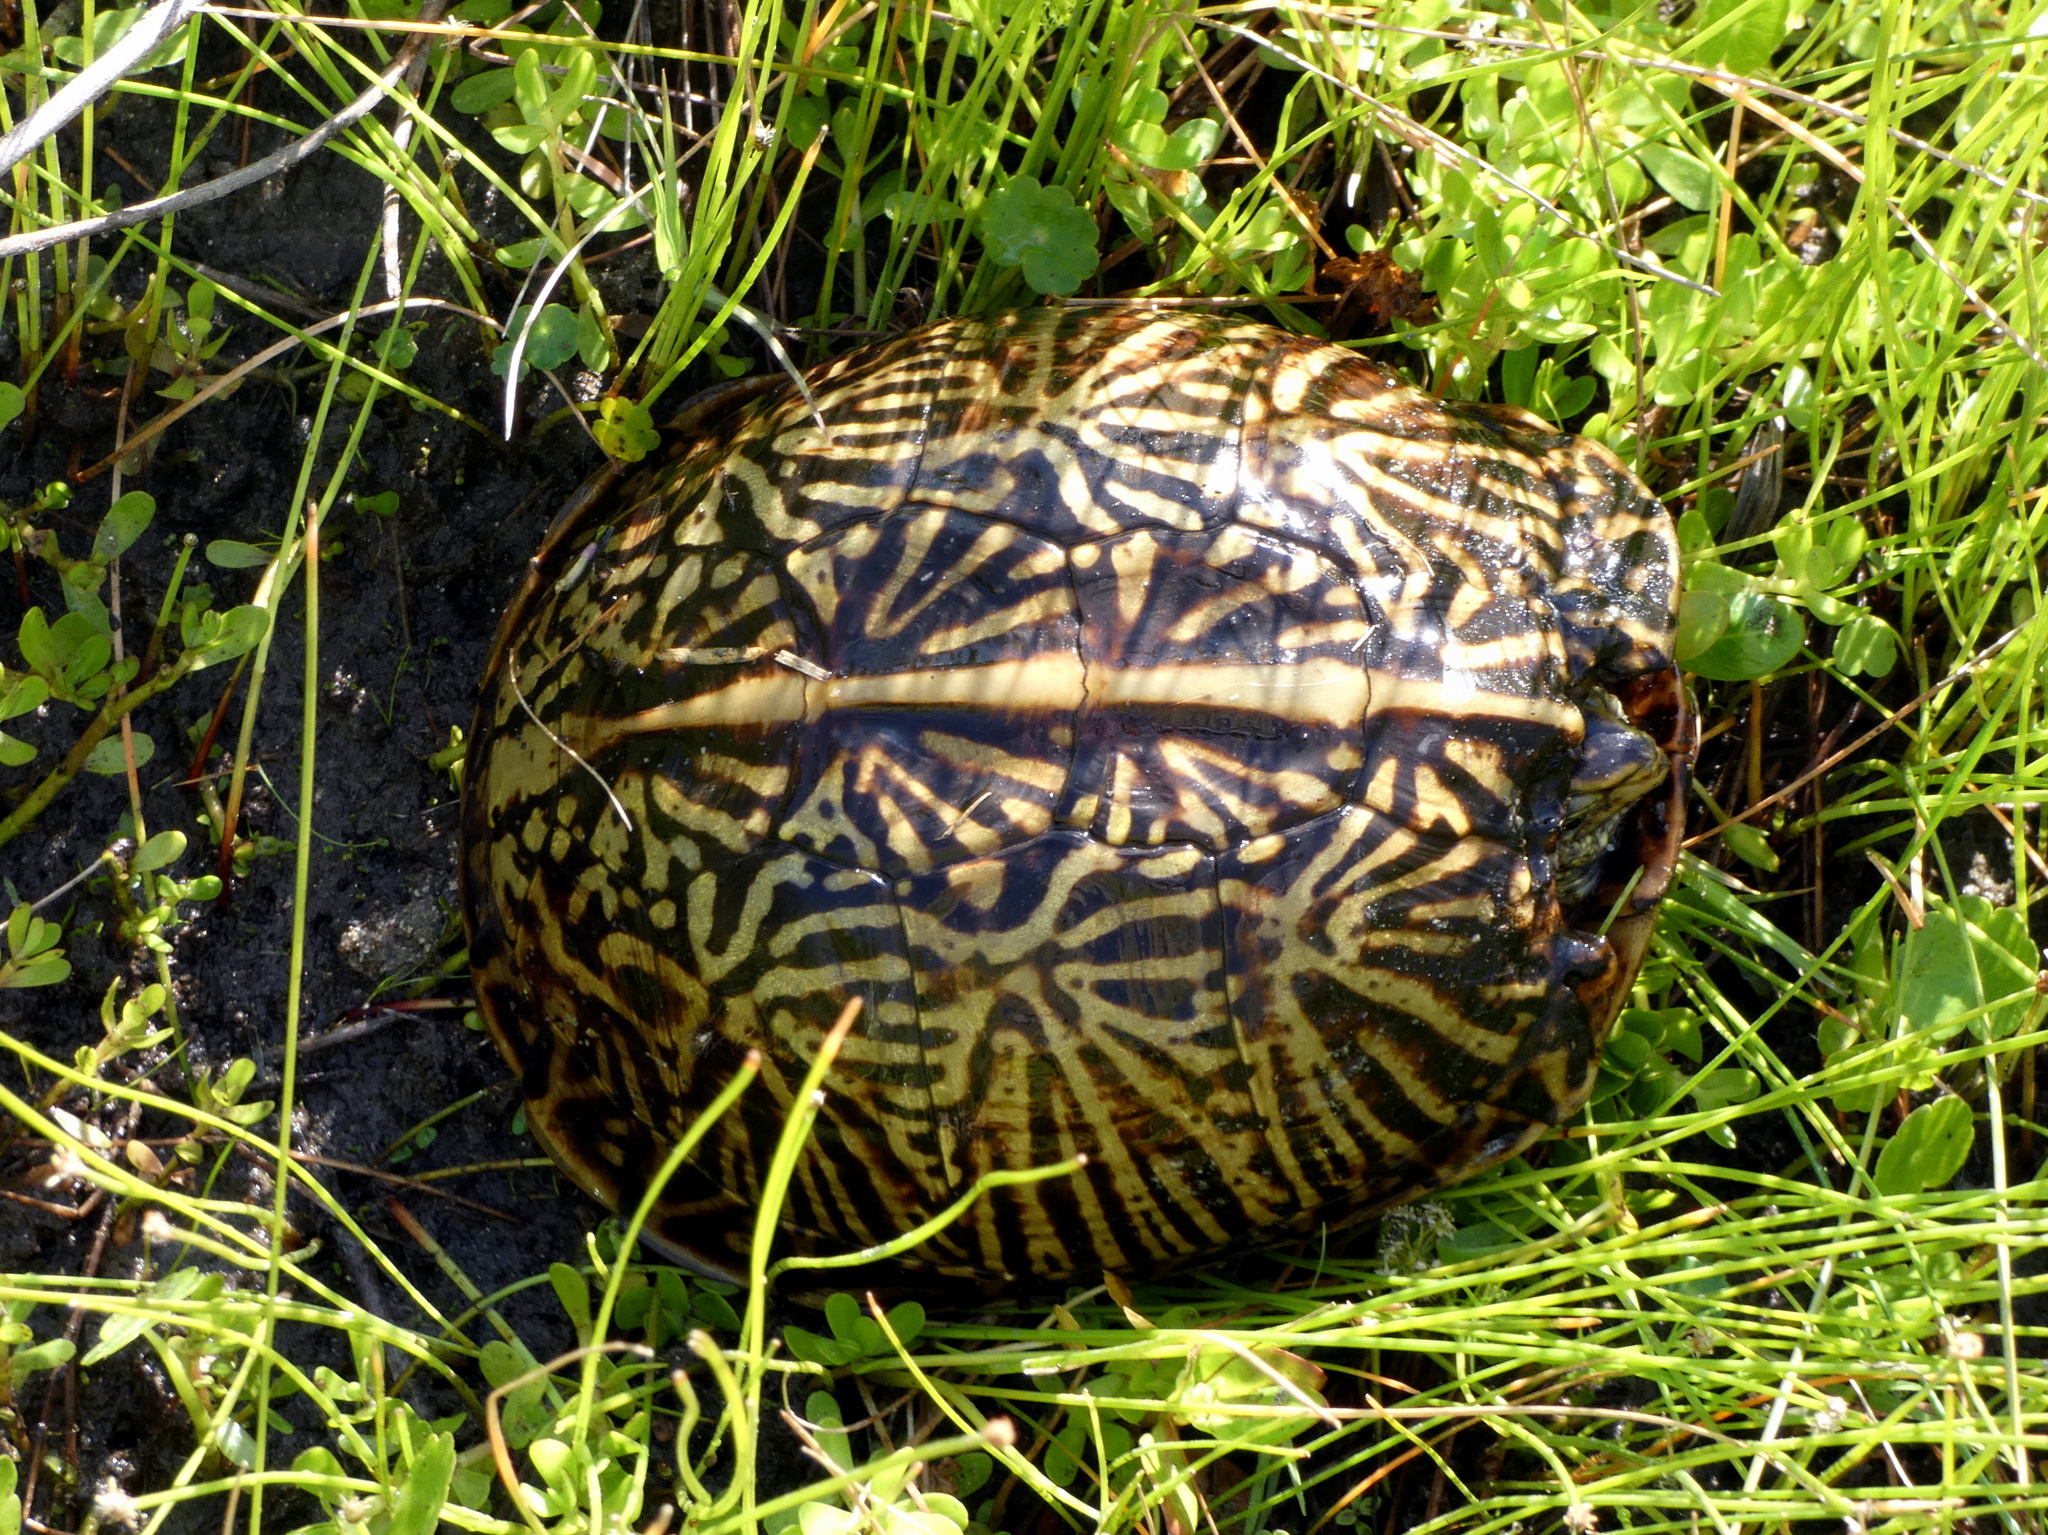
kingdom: Animalia
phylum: Chordata
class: Testudines
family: Emydidae
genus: Terrapene
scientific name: Terrapene carolina
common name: Common box turtle
